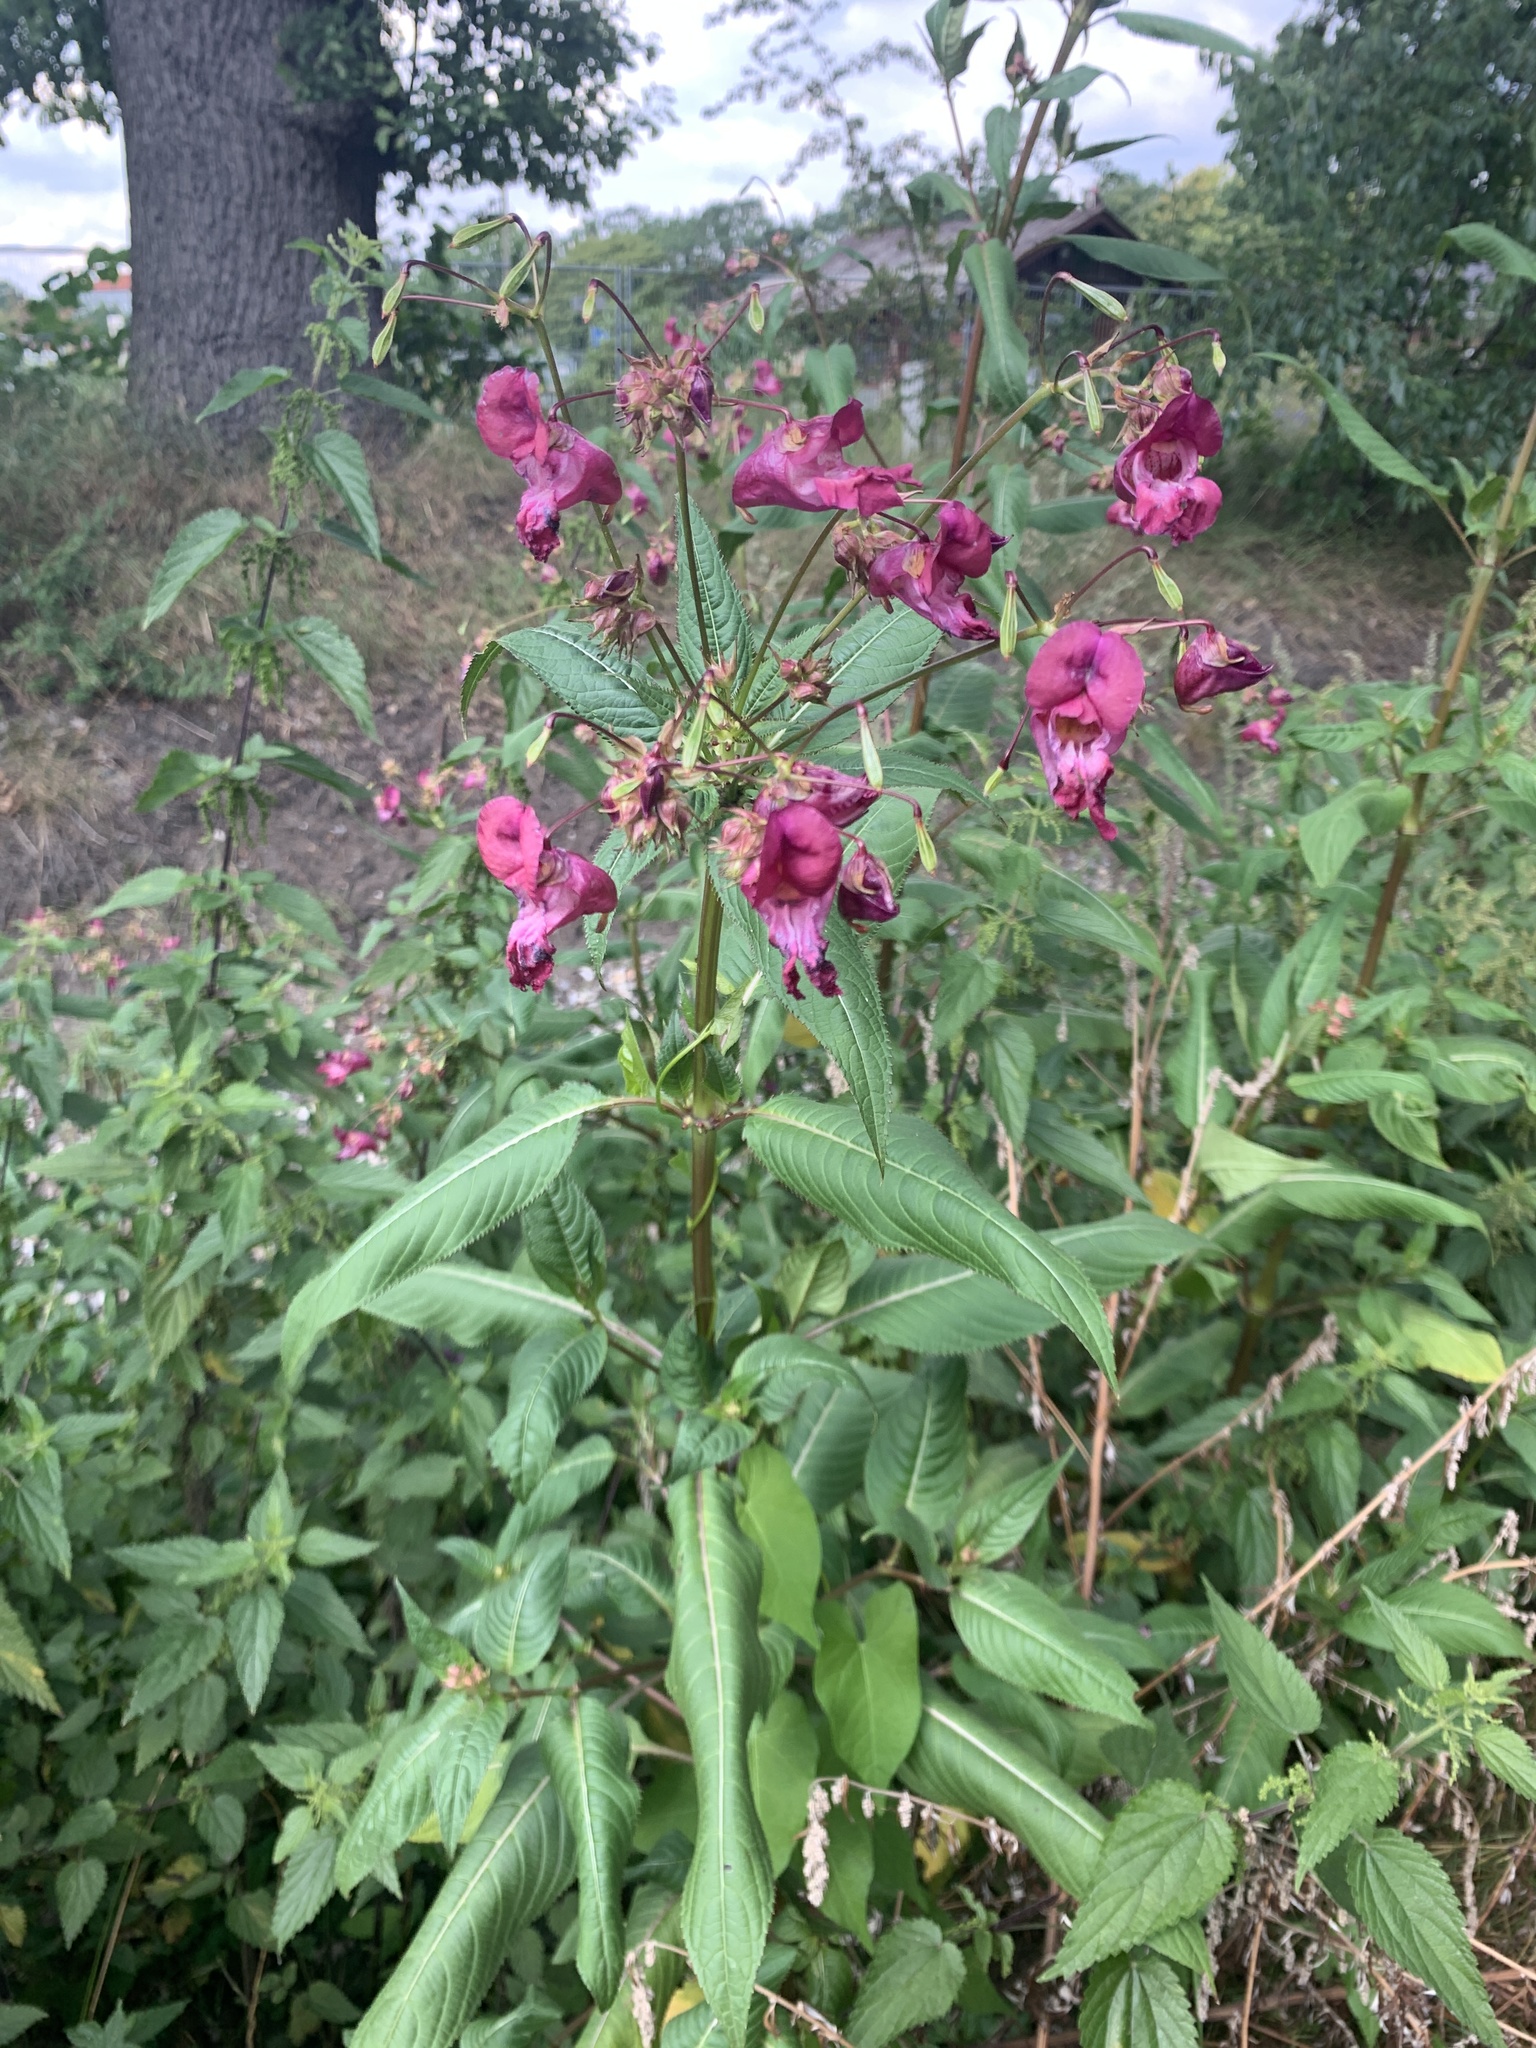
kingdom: Plantae
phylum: Tracheophyta
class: Magnoliopsida
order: Ericales
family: Balsaminaceae
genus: Impatiens
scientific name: Impatiens glandulifera
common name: Himalayan balsam
